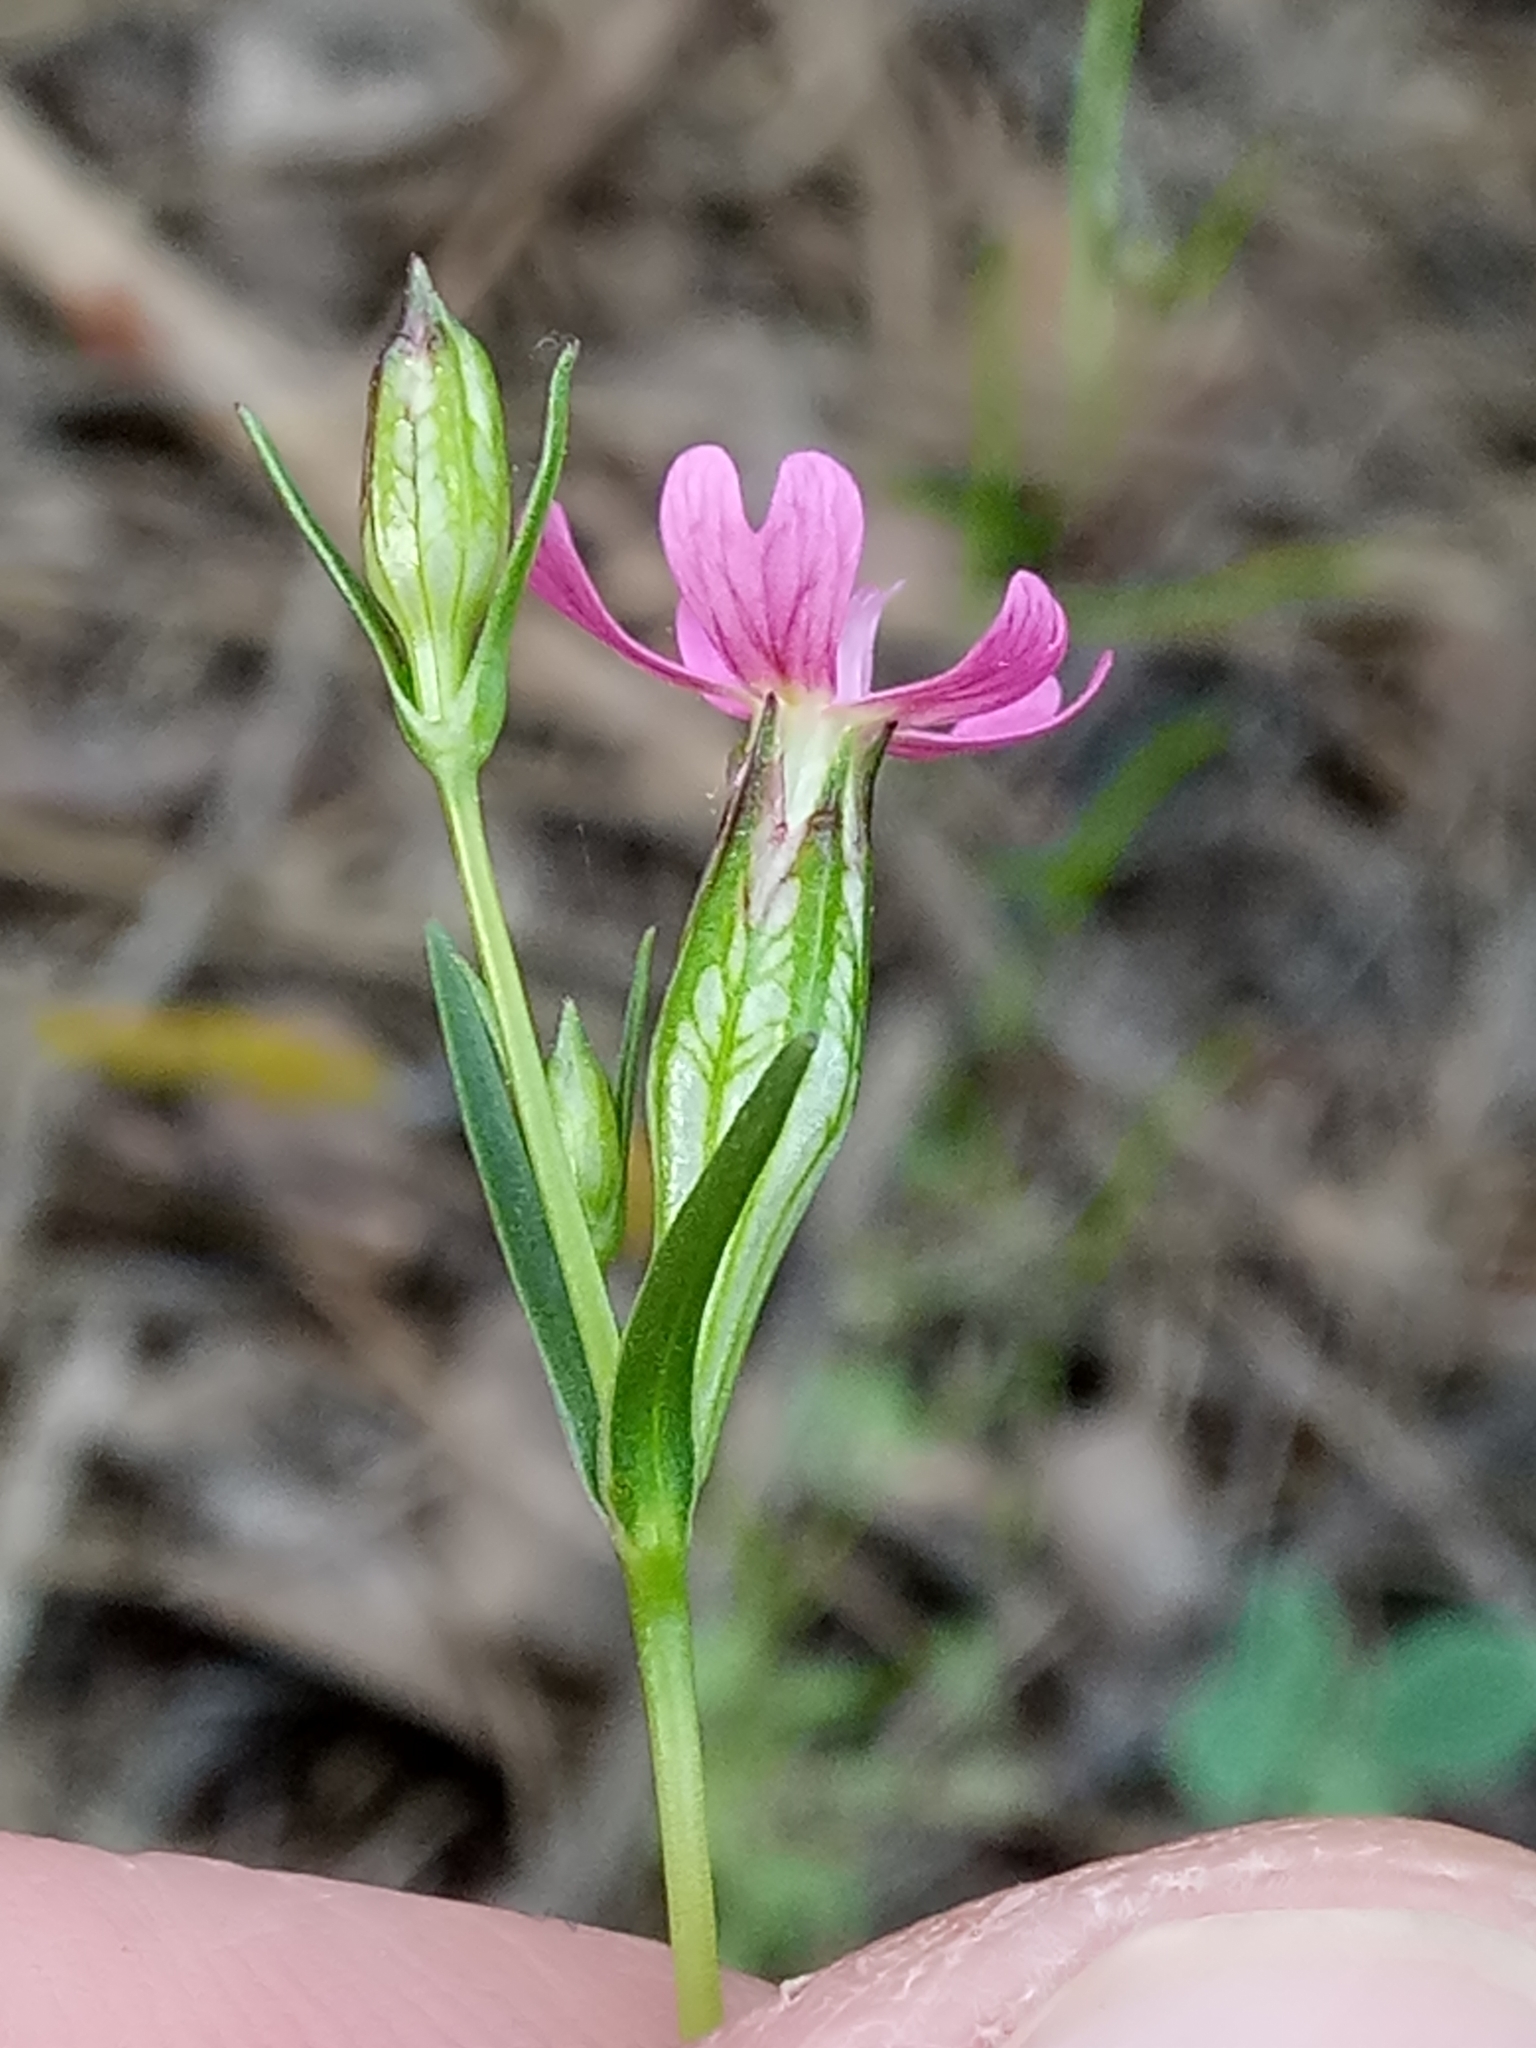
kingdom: Plantae
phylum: Tracheophyta
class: Magnoliopsida
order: Caryophyllales
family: Caryophyllaceae
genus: Silene
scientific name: Silene stricta
